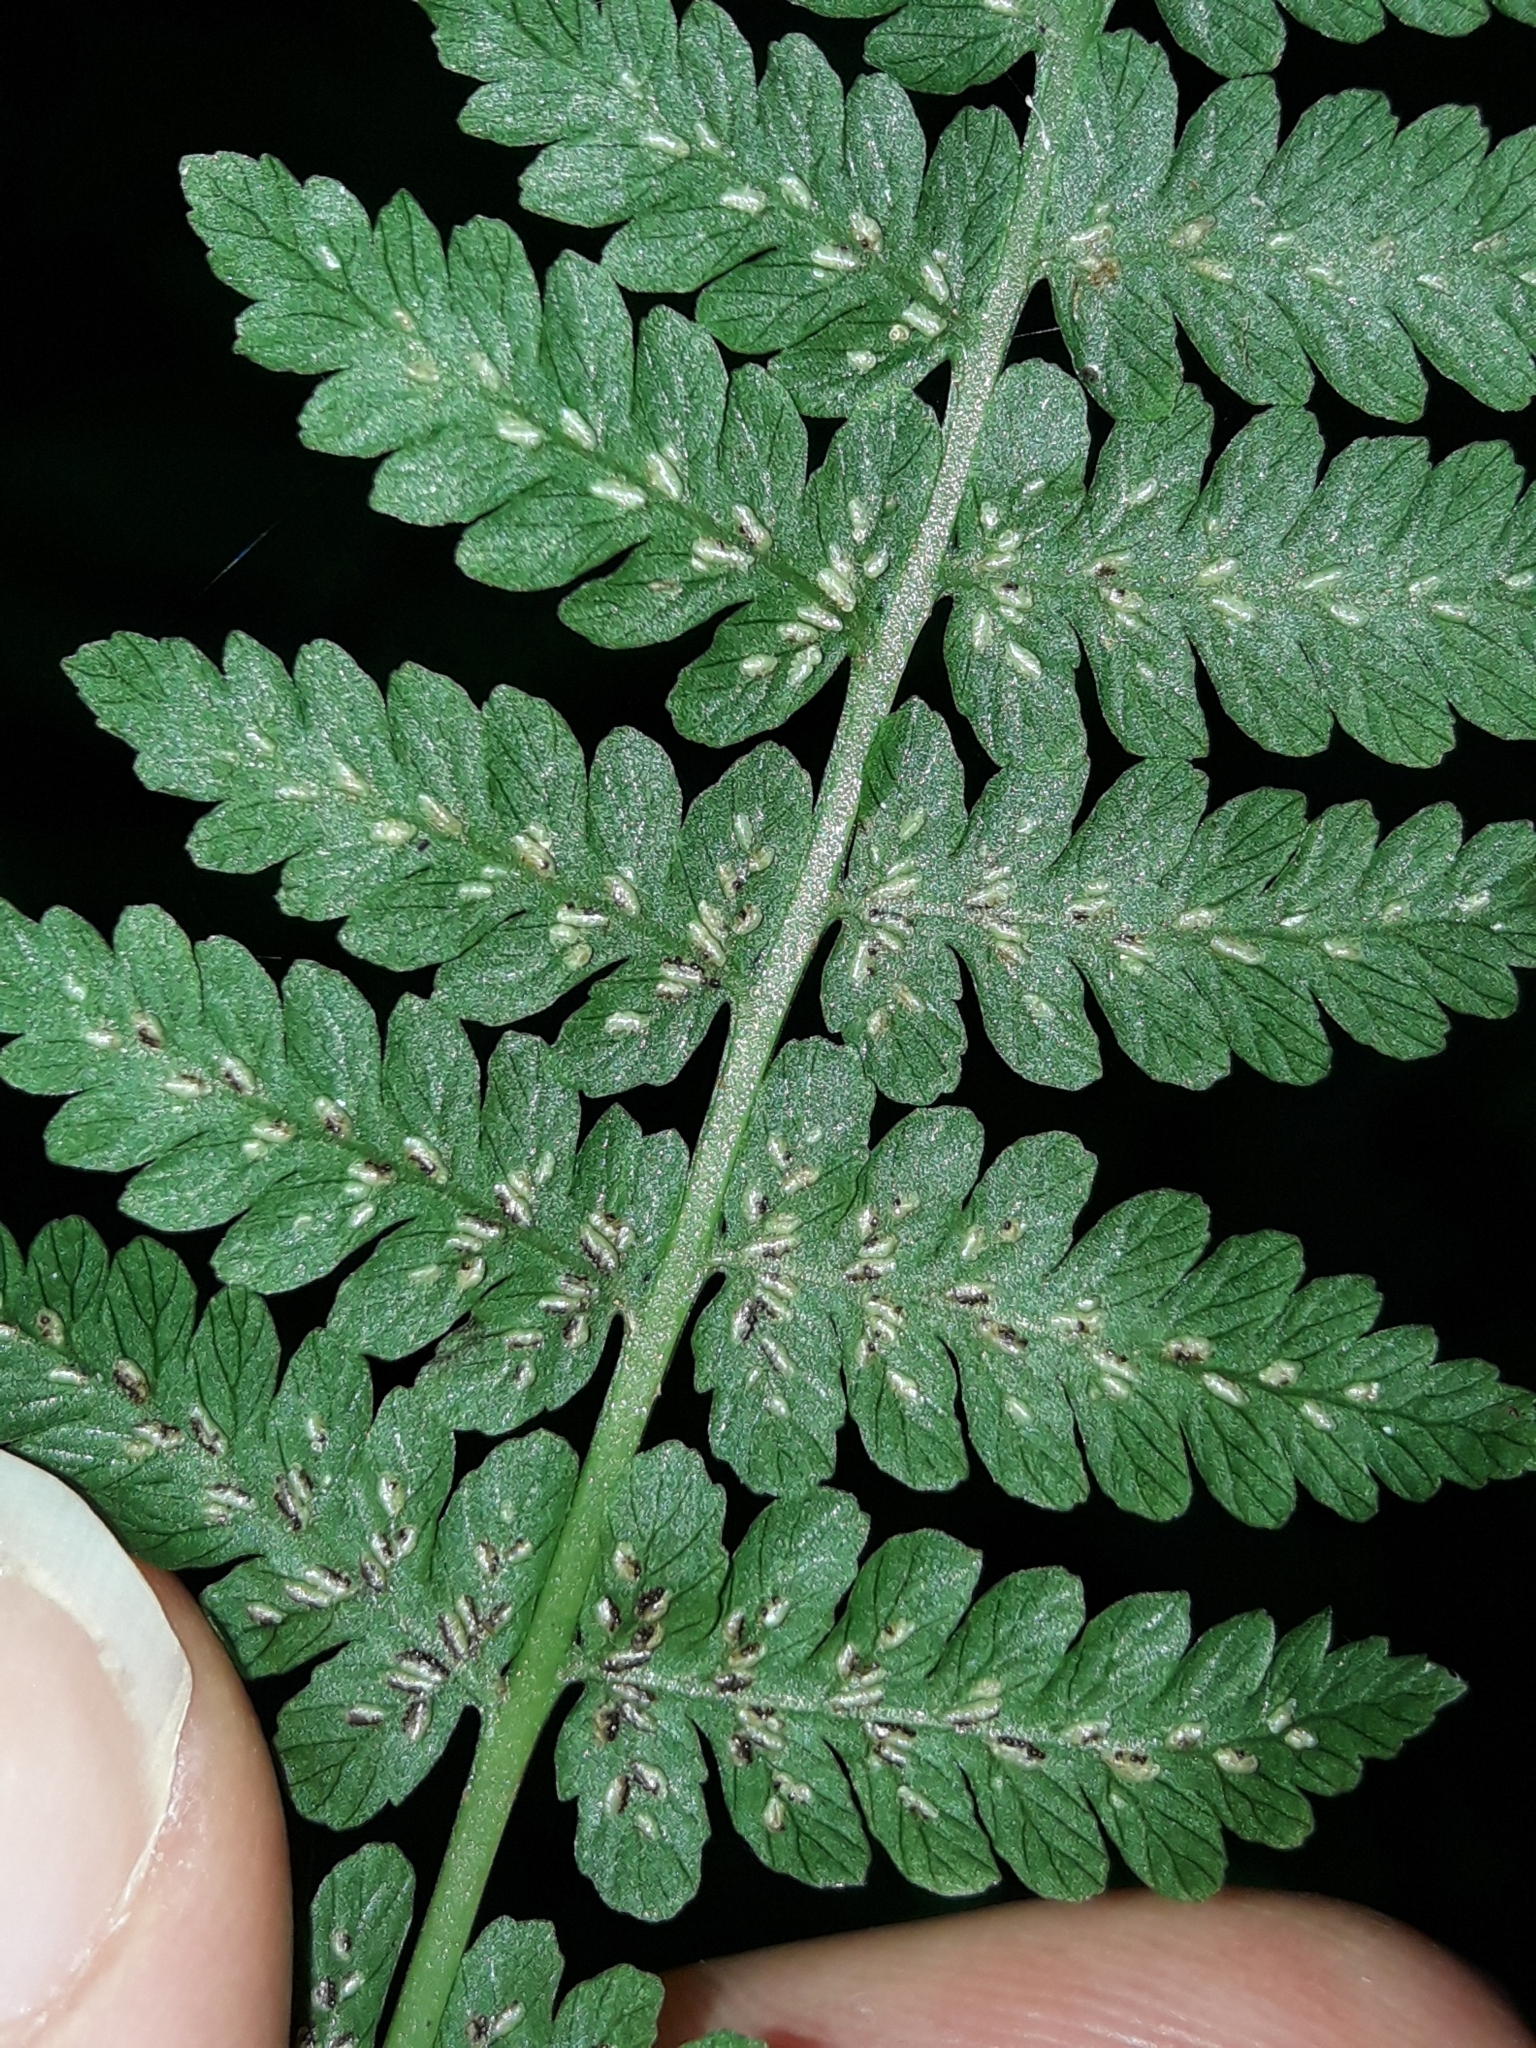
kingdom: Plantae
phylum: Tracheophyta
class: Polypodiopsida
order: Polypodiales
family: Athyriaceae
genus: Diplazium
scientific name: Diplazium australe
